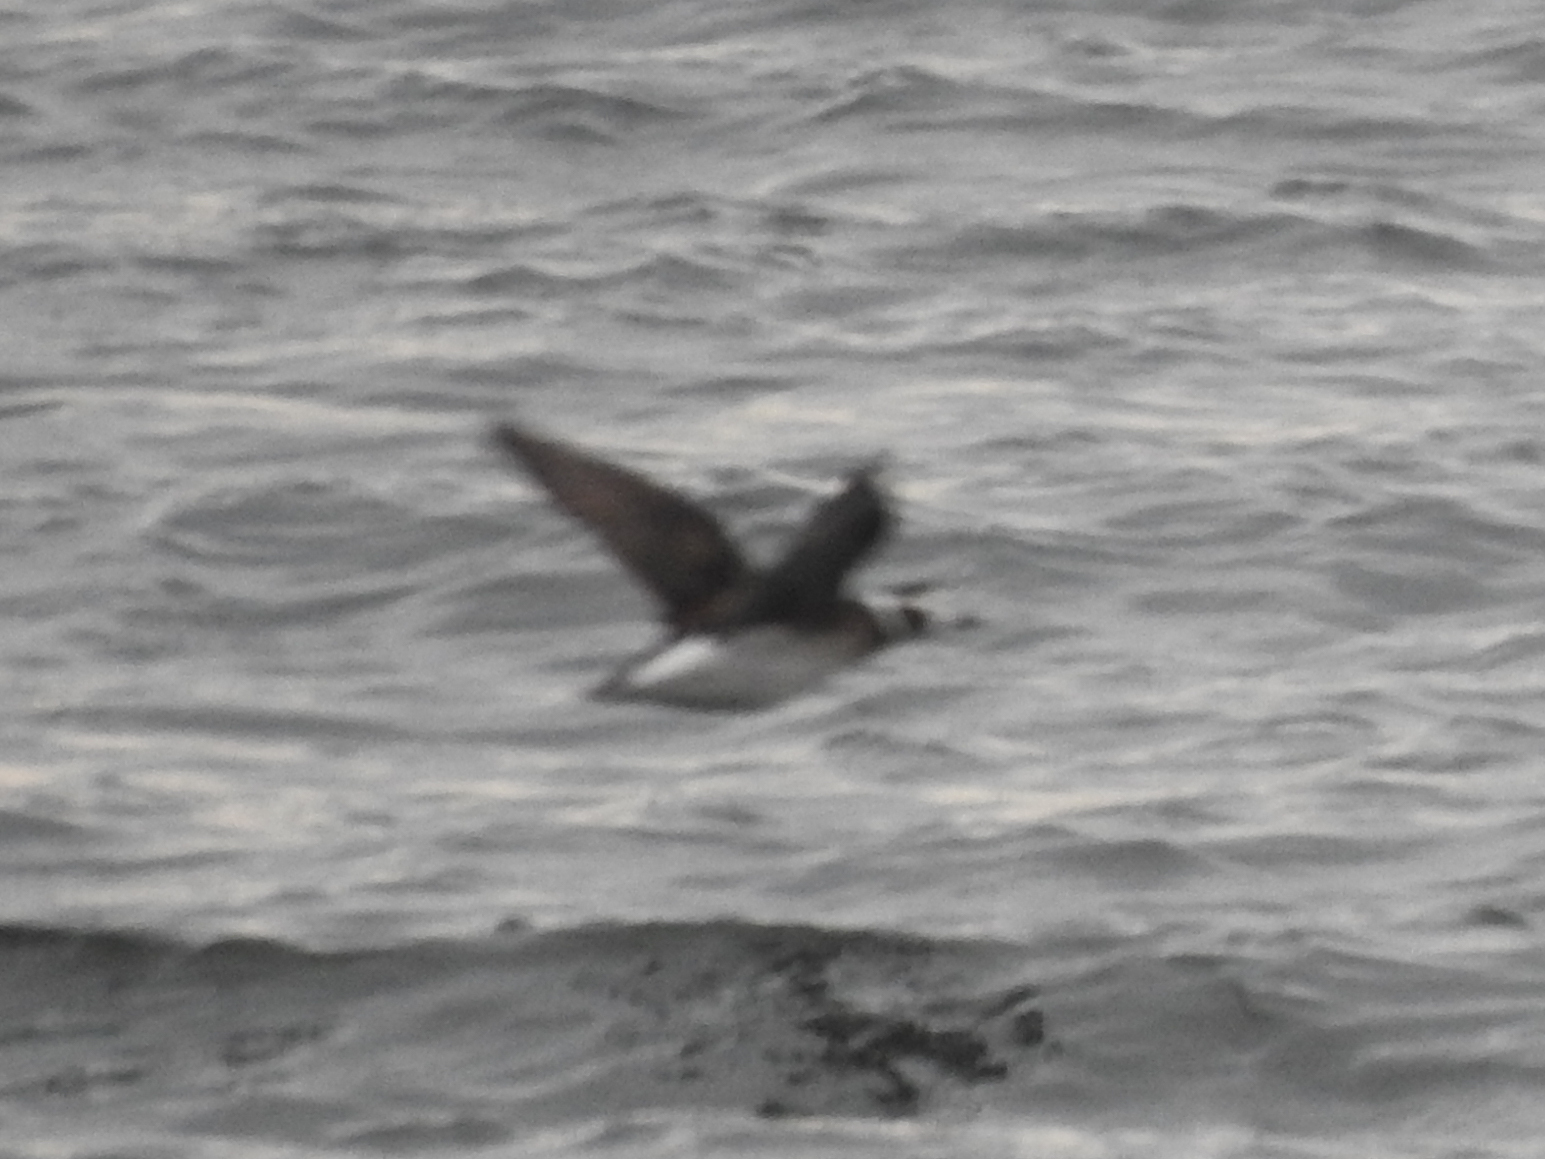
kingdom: Animalia
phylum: Chordata
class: Aves
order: Anseriformes
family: Anatidae
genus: Clangula
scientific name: Clangula hyemalis
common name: Long-tailed duck
